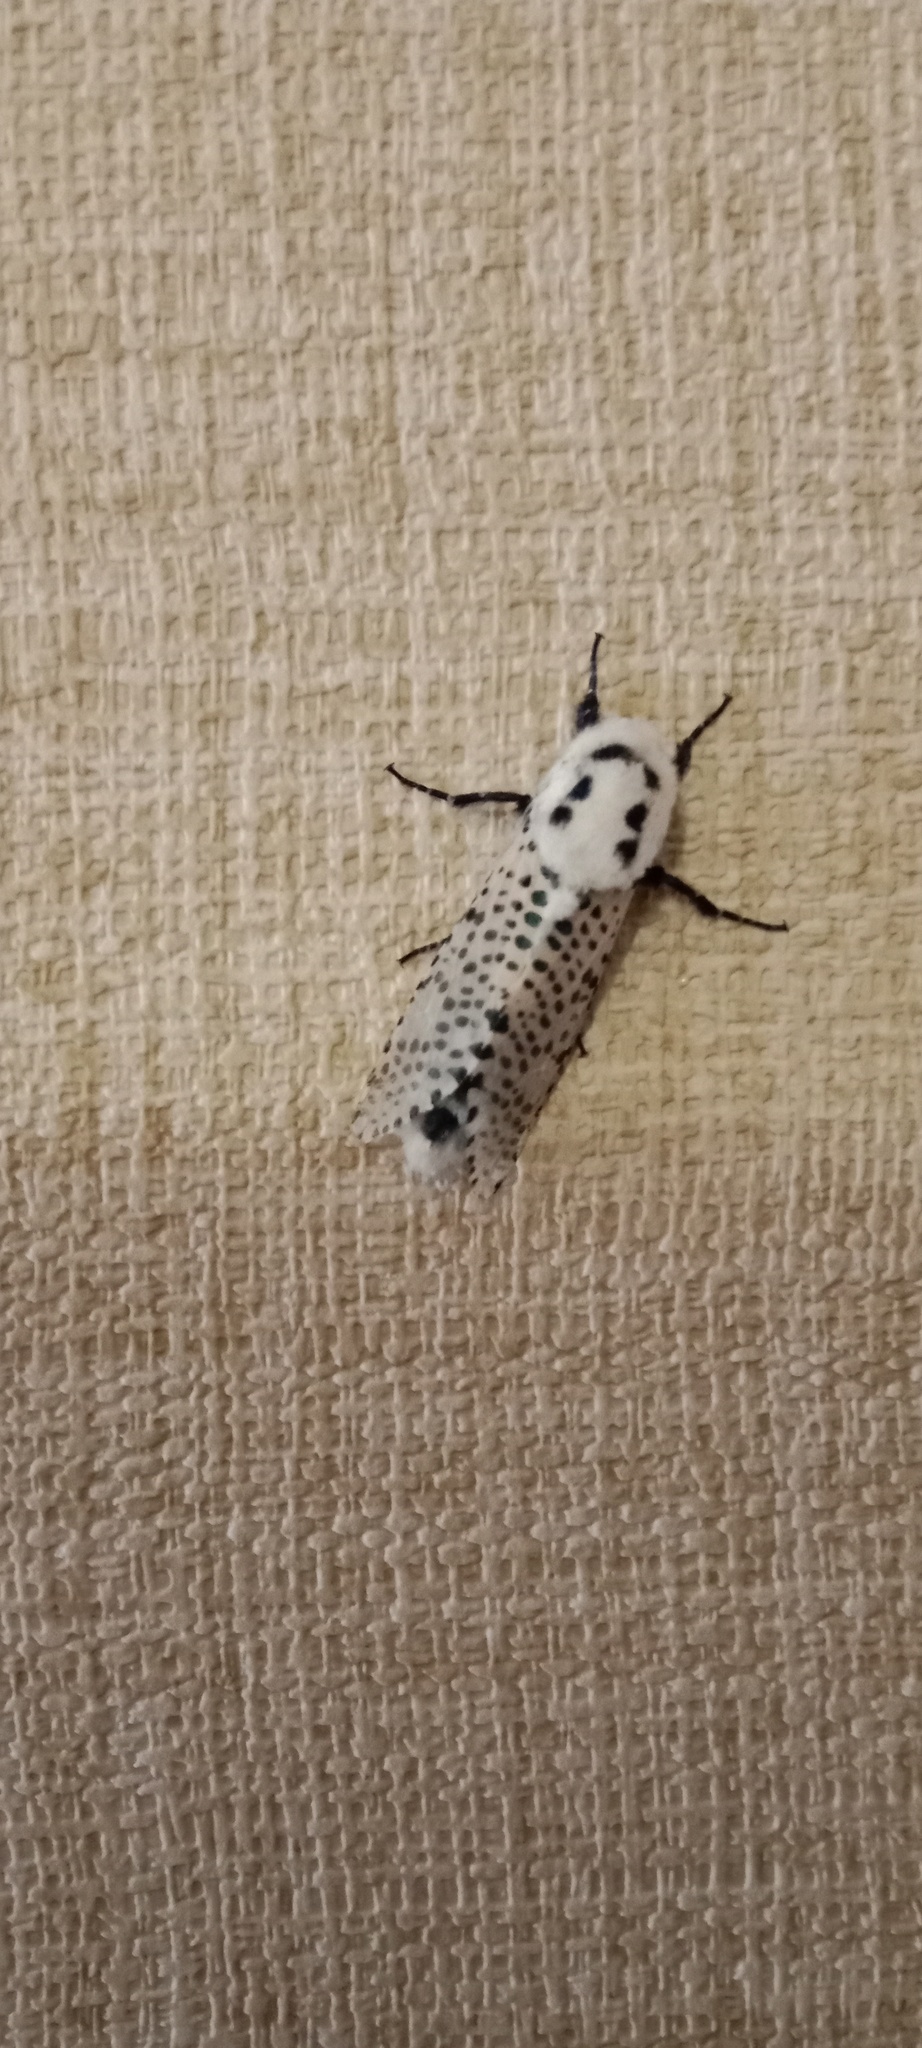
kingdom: Animalia
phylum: Arthropoda
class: Insecta
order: Lepidoptera
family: Cossidae
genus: Zeuzera
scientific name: Zeuzera pyrina
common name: Leopard moth
